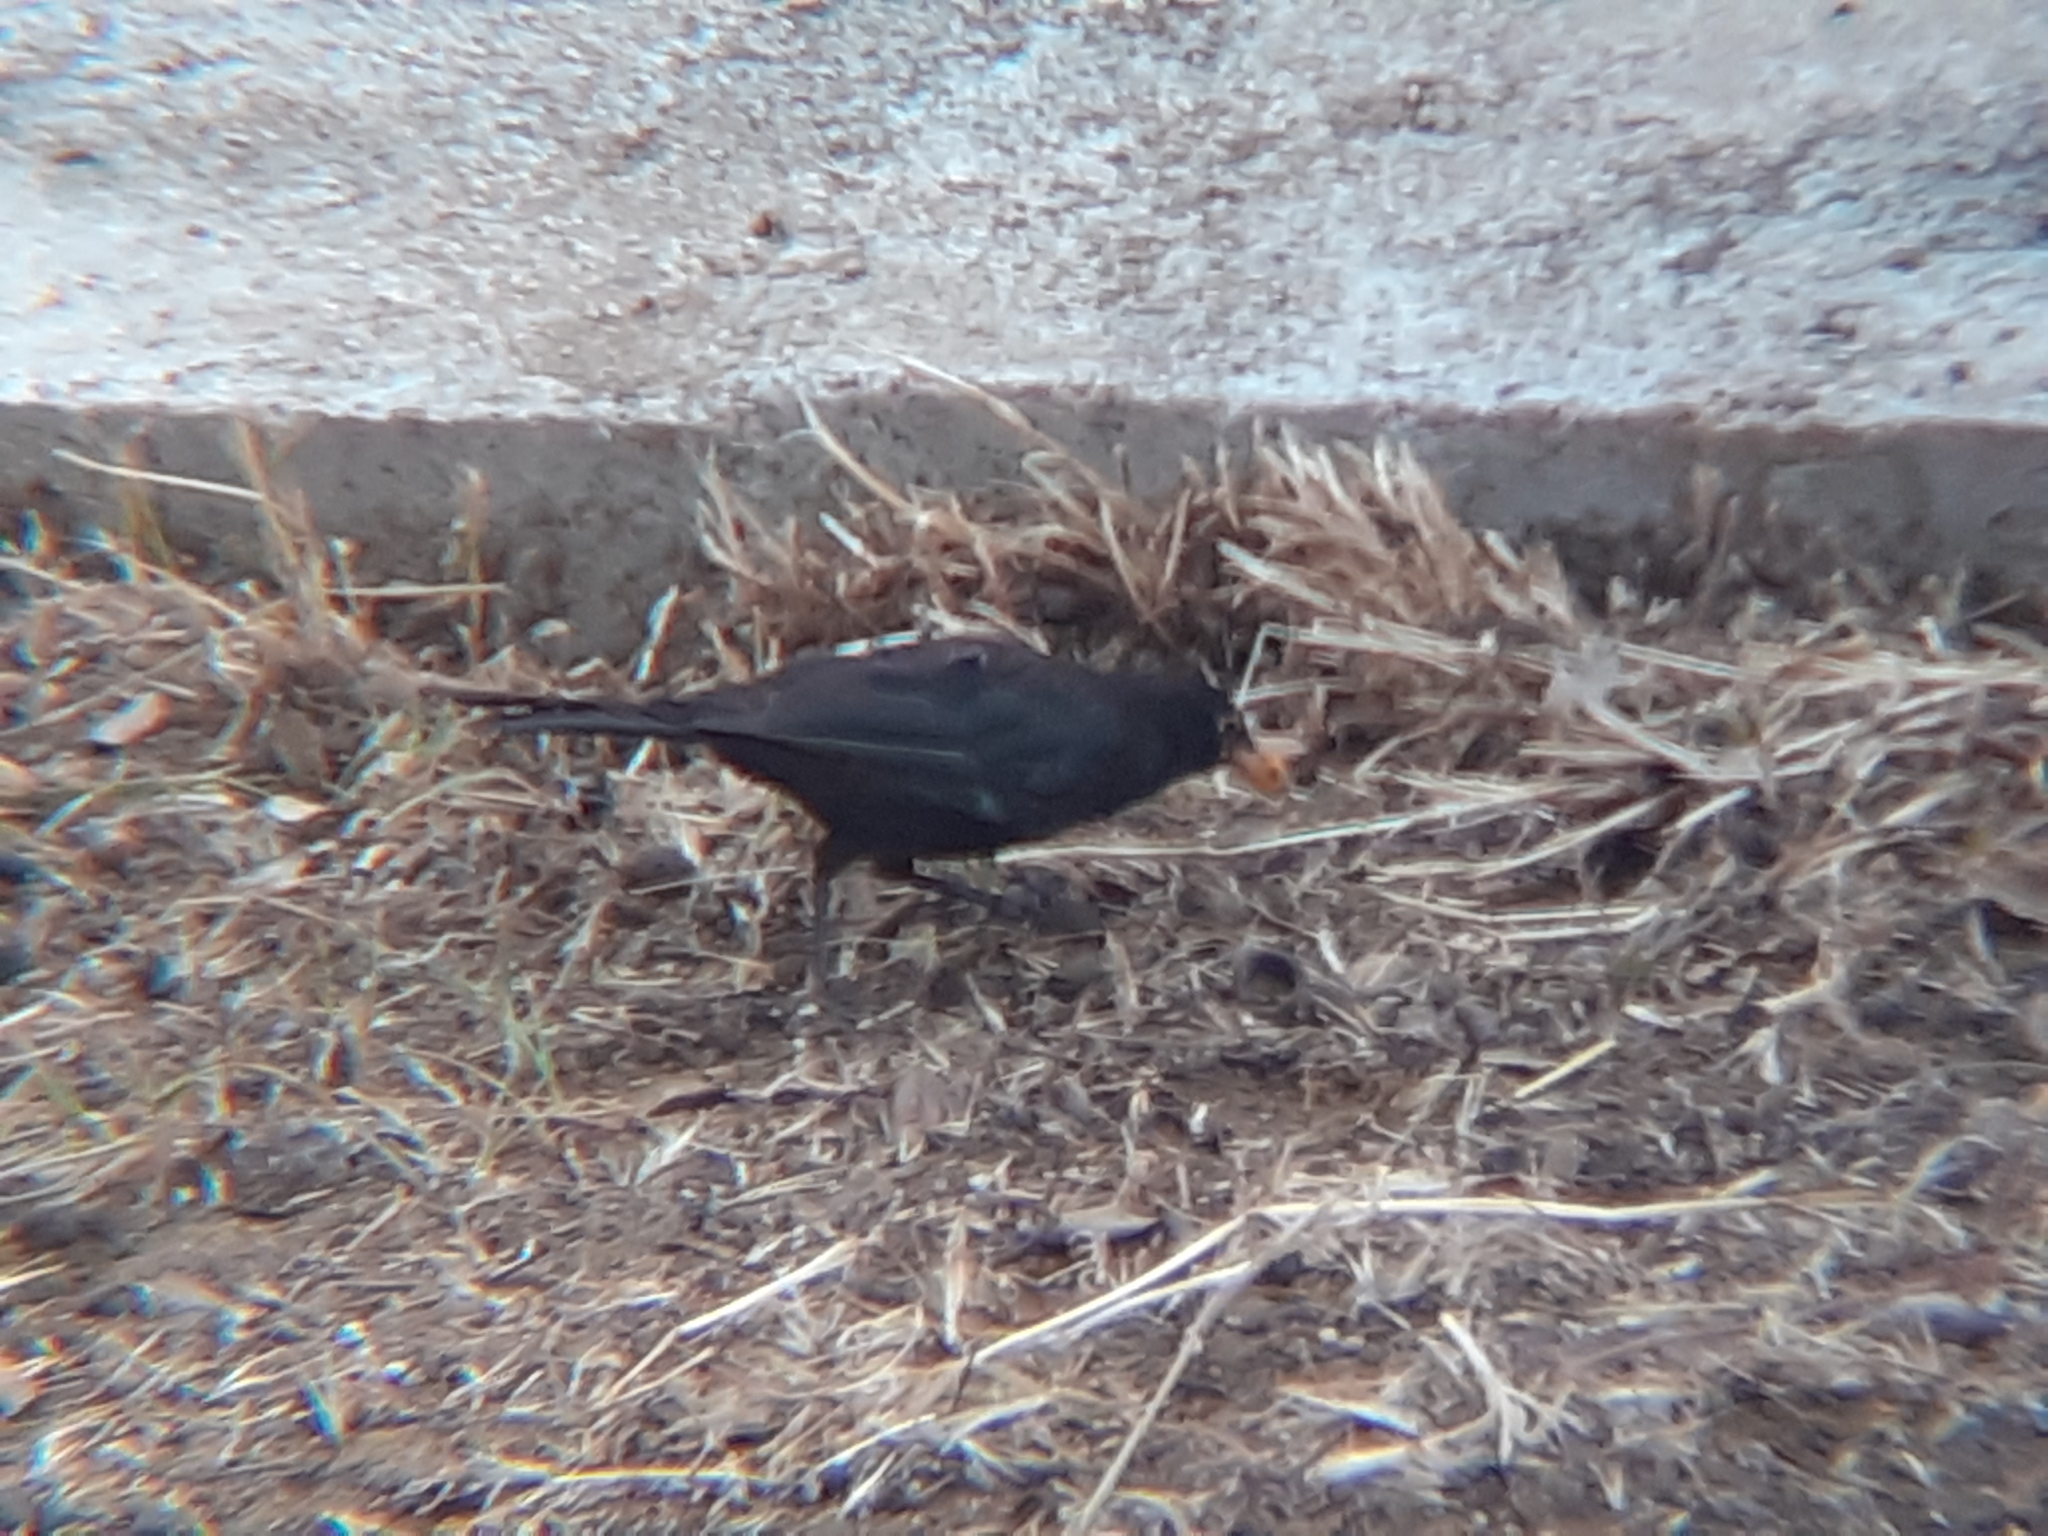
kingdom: Animalia
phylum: Chordata
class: Aves
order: Passeriformes
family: Turdidae
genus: Turdus
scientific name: Turdus merula
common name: Common blackbird
